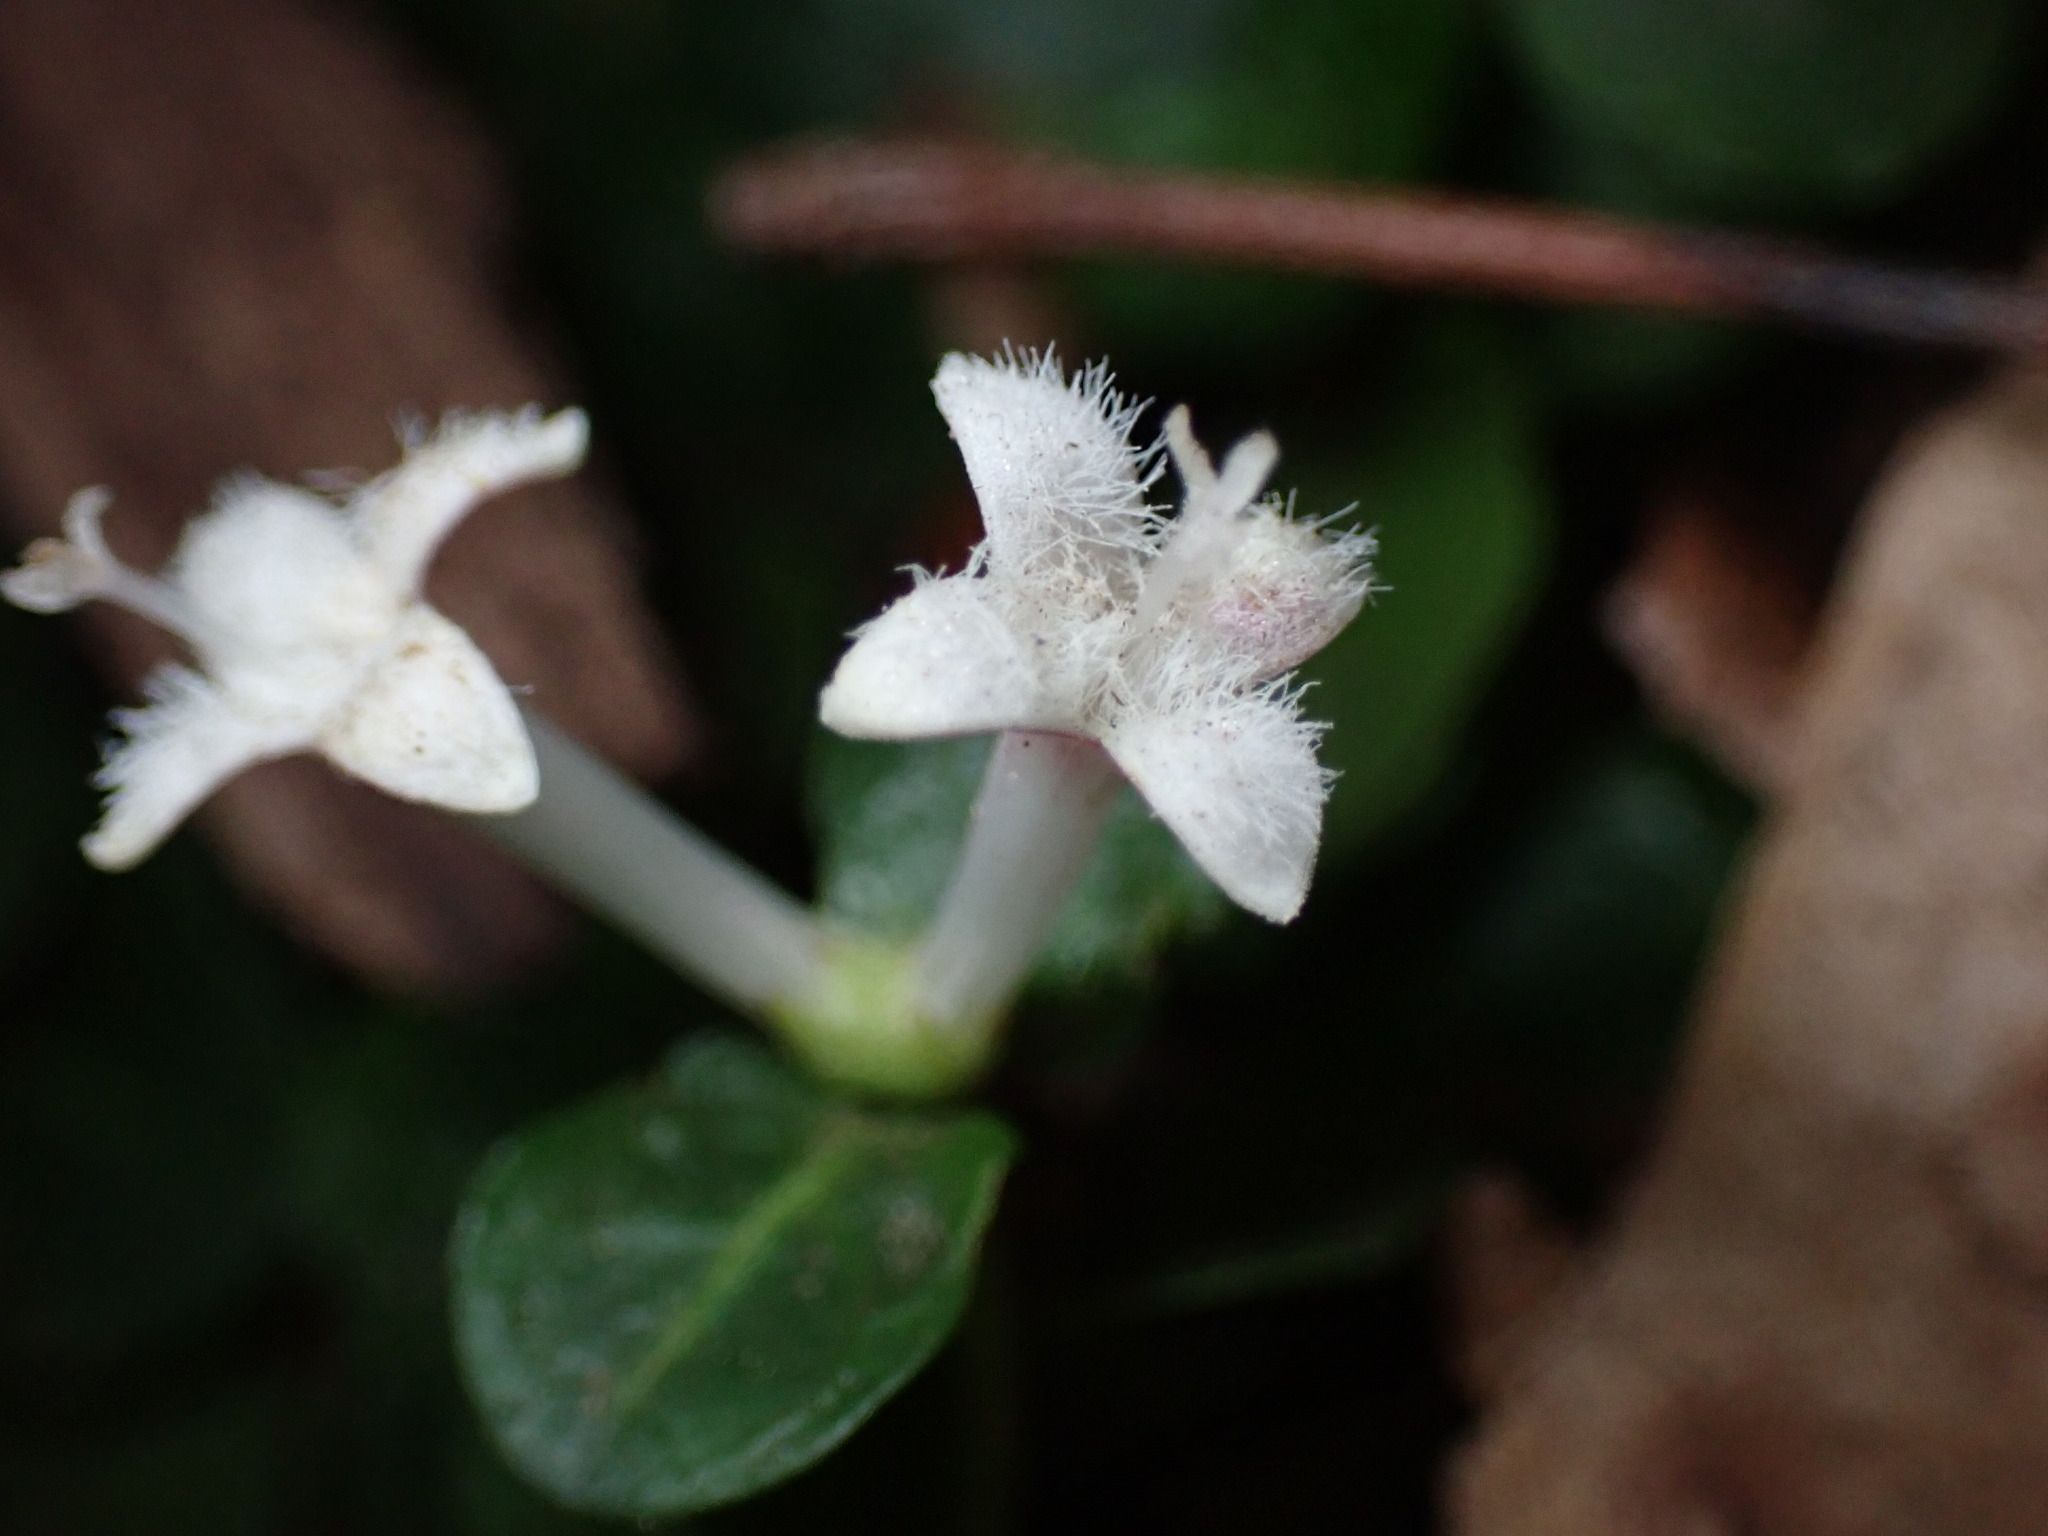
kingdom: Plantae
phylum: Tracheophyta
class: Magnoliopsida
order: Gentianales
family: Rubiaceae
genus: Mitchella
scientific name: Mitchella repens
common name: Partridge-berry
